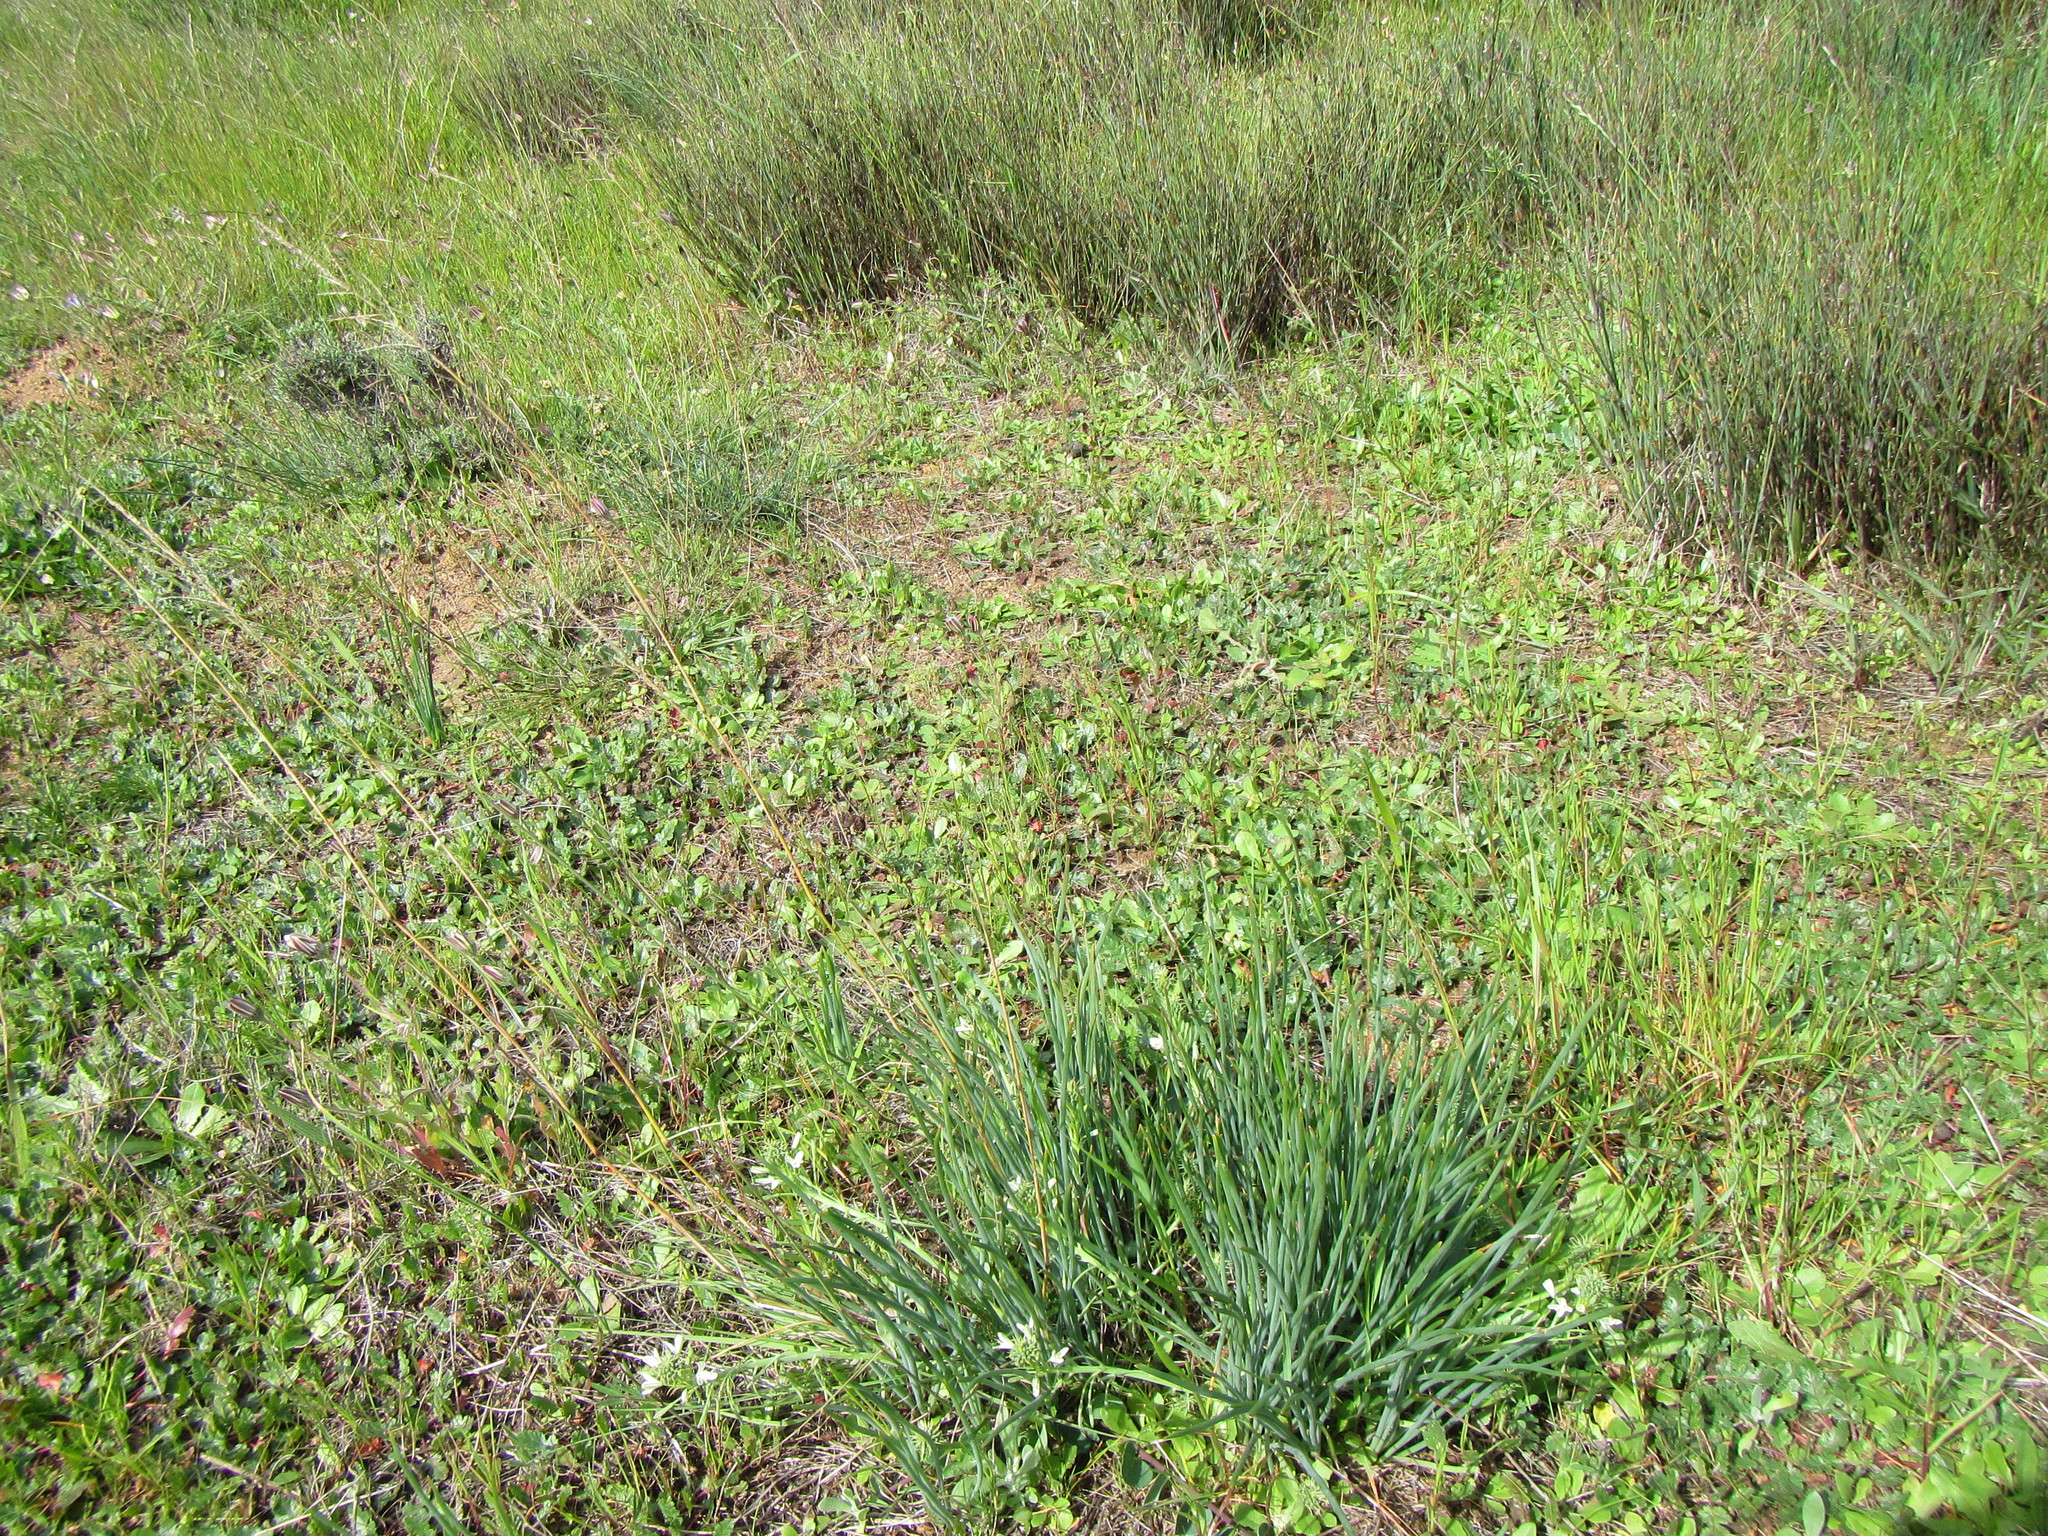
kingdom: Plantae
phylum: Tracheophyta
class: Liliopsida
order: Asparagales
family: Asphodelaceae
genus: Trachyandra
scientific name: Trachyandra chlamydophylla
